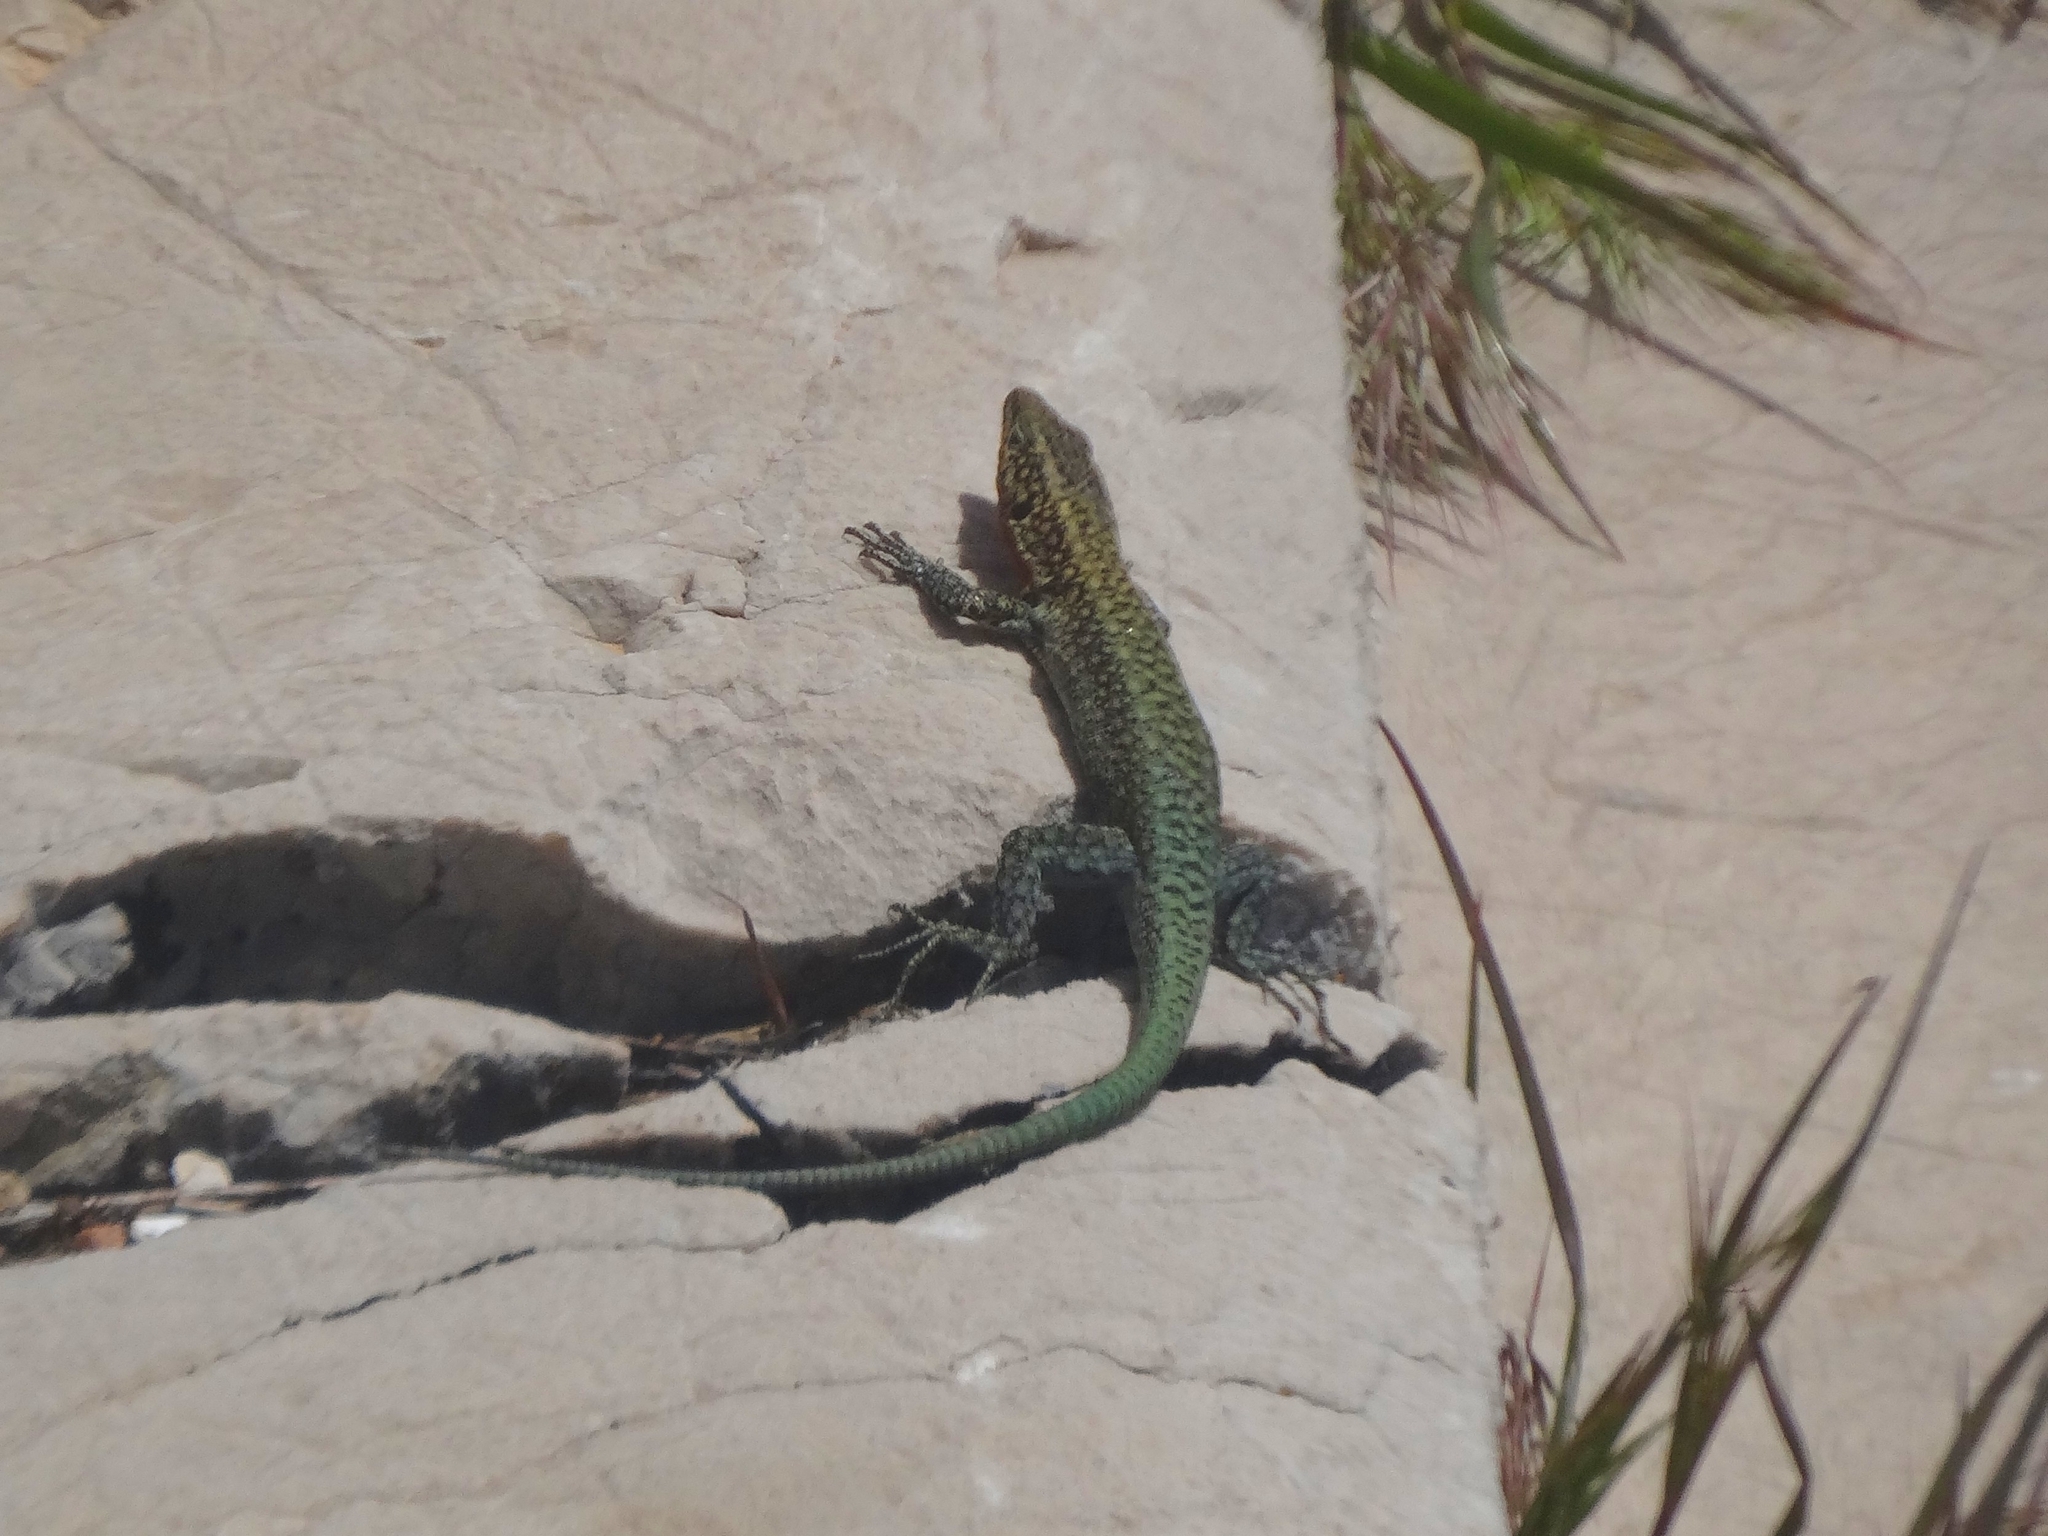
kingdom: Animalia
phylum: Chordata
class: Squamata
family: Lacertidae
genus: Anatololacerta
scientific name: Anatololacerta ibrahimi
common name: Baran’s lizard
